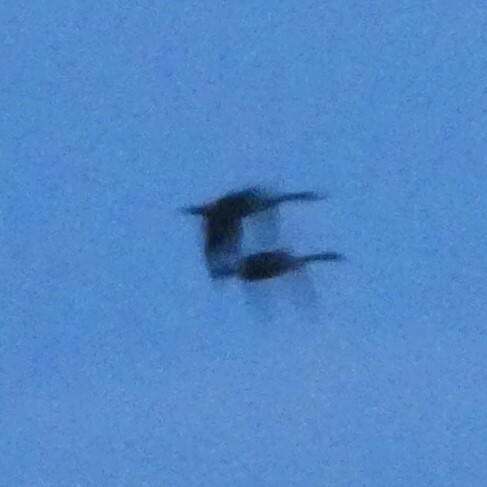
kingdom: Animalia
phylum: Chordata
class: Aves
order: Anseriformes
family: Anatidae
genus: Branta
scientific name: Branta canadensis
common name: Canada goose
